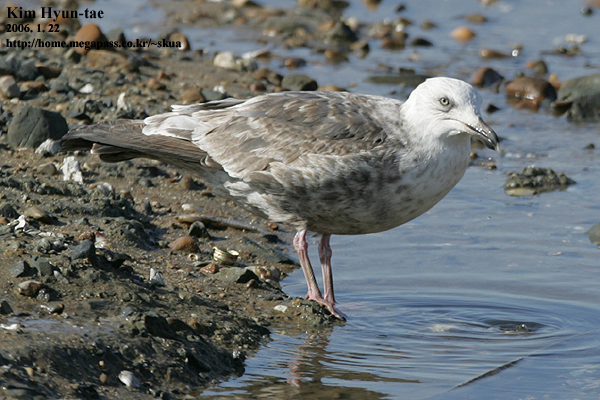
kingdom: Animalia
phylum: Chordata
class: Aves
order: Charadriiformes
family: Laridae
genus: Larus
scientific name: Larus schistisagus
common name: Slaty-backed gull
